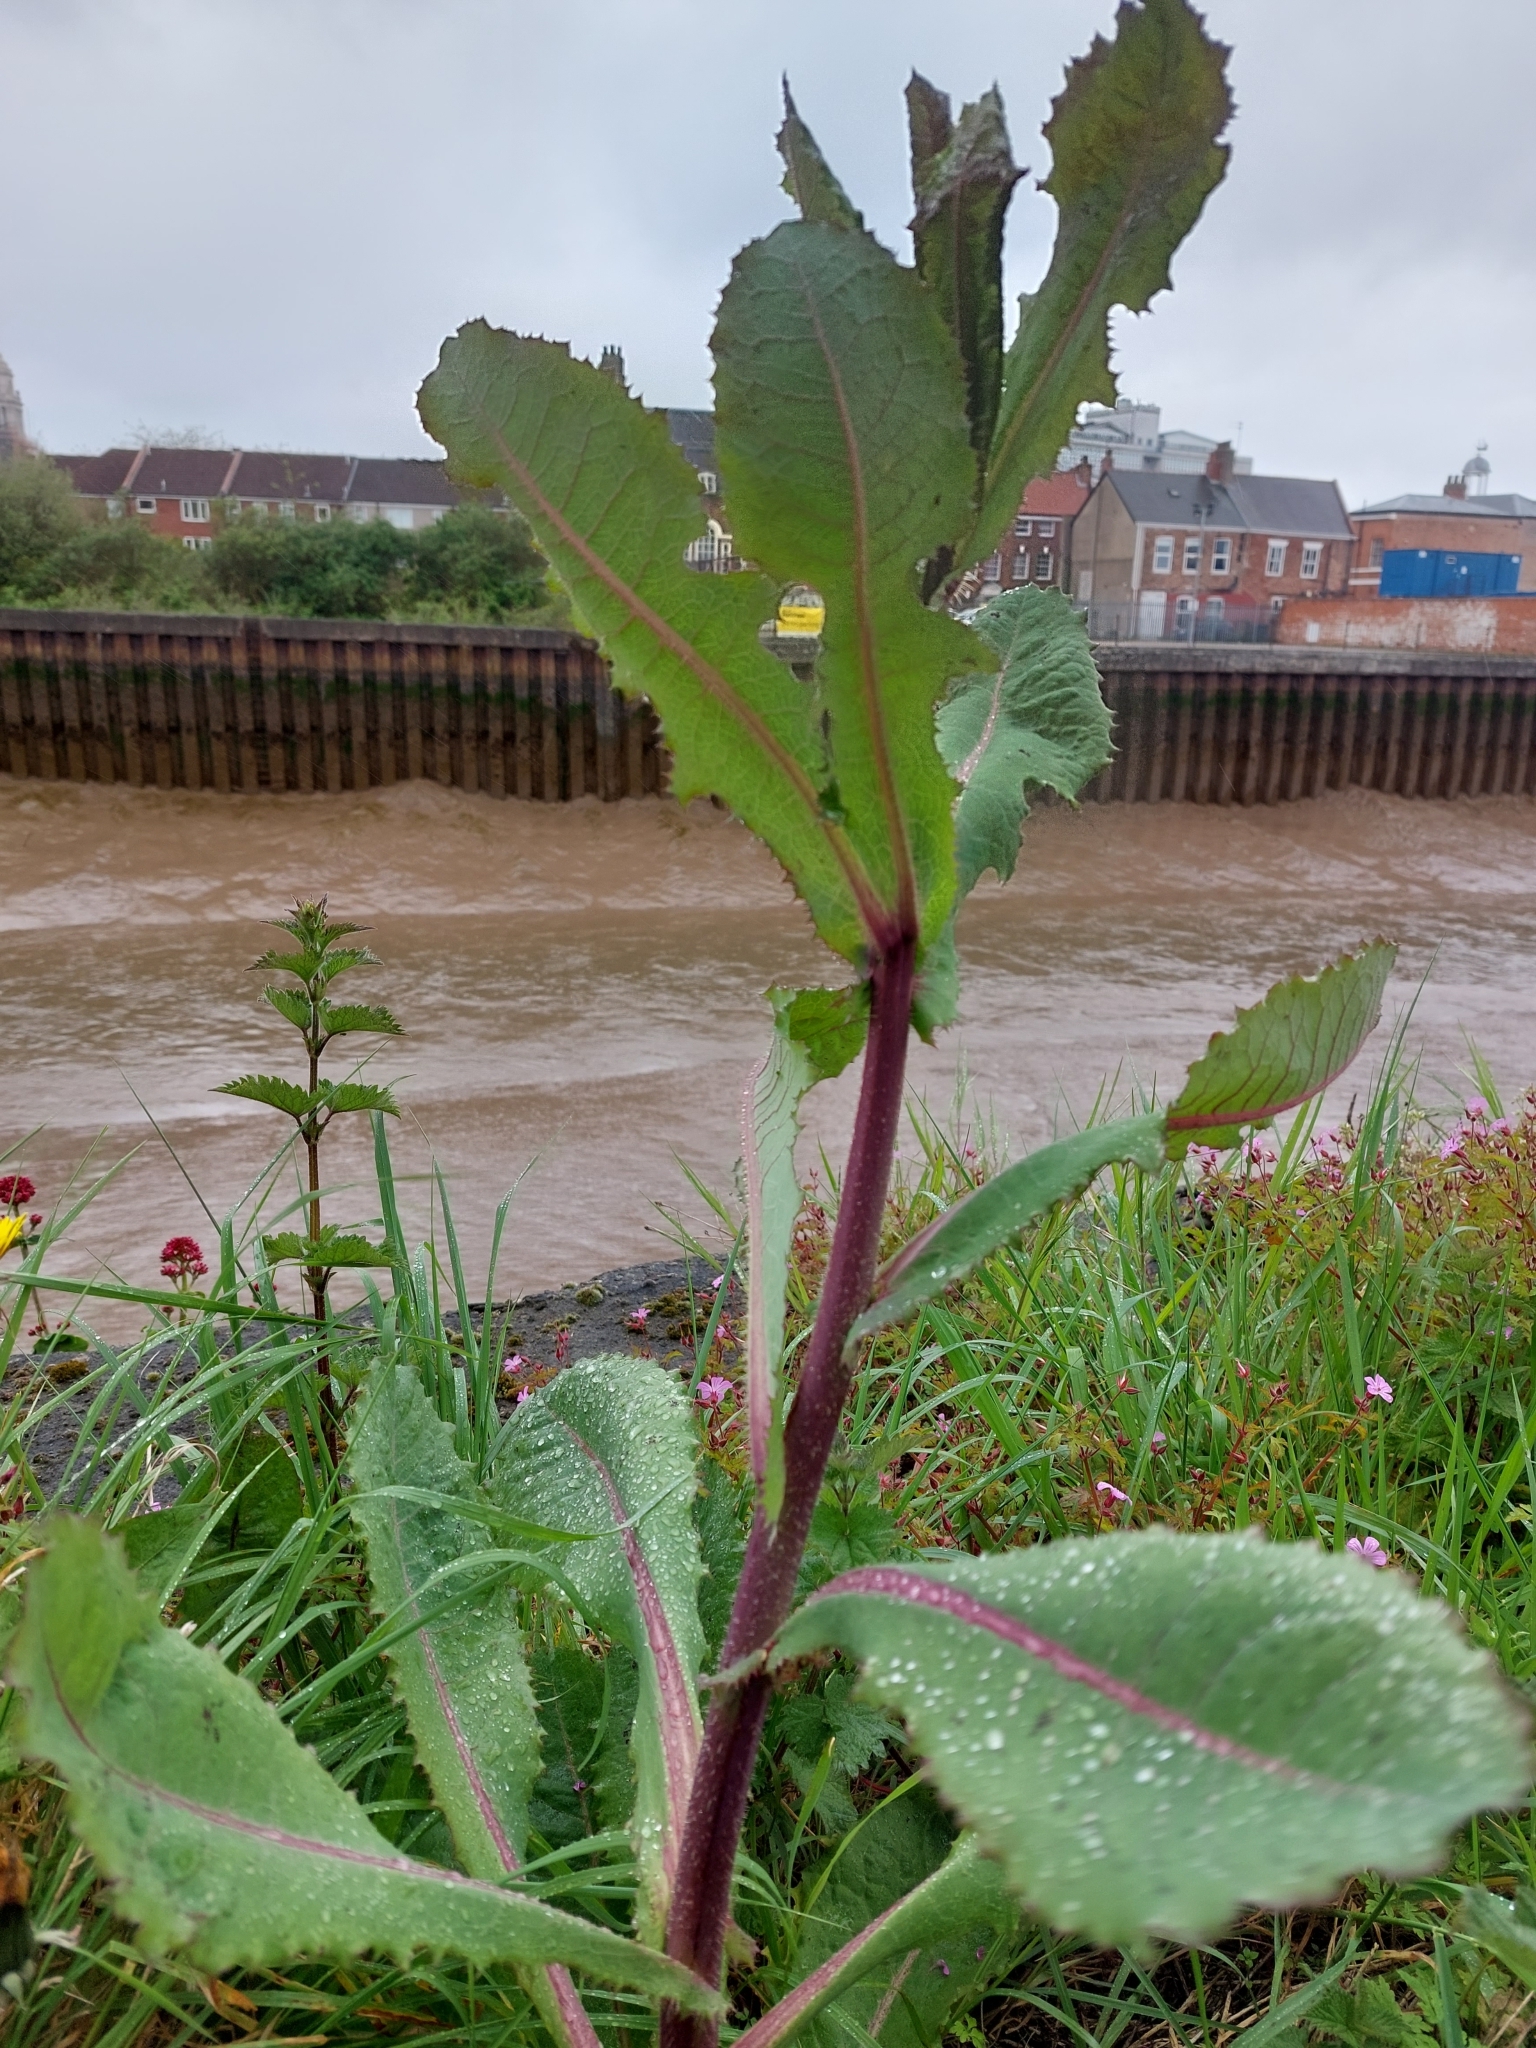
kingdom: Plantae
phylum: Tracheophyta
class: Magnoliopsida
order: Asterales
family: Asteraceae
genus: Lactuca
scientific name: Lactuca virosa
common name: Great lettuce
